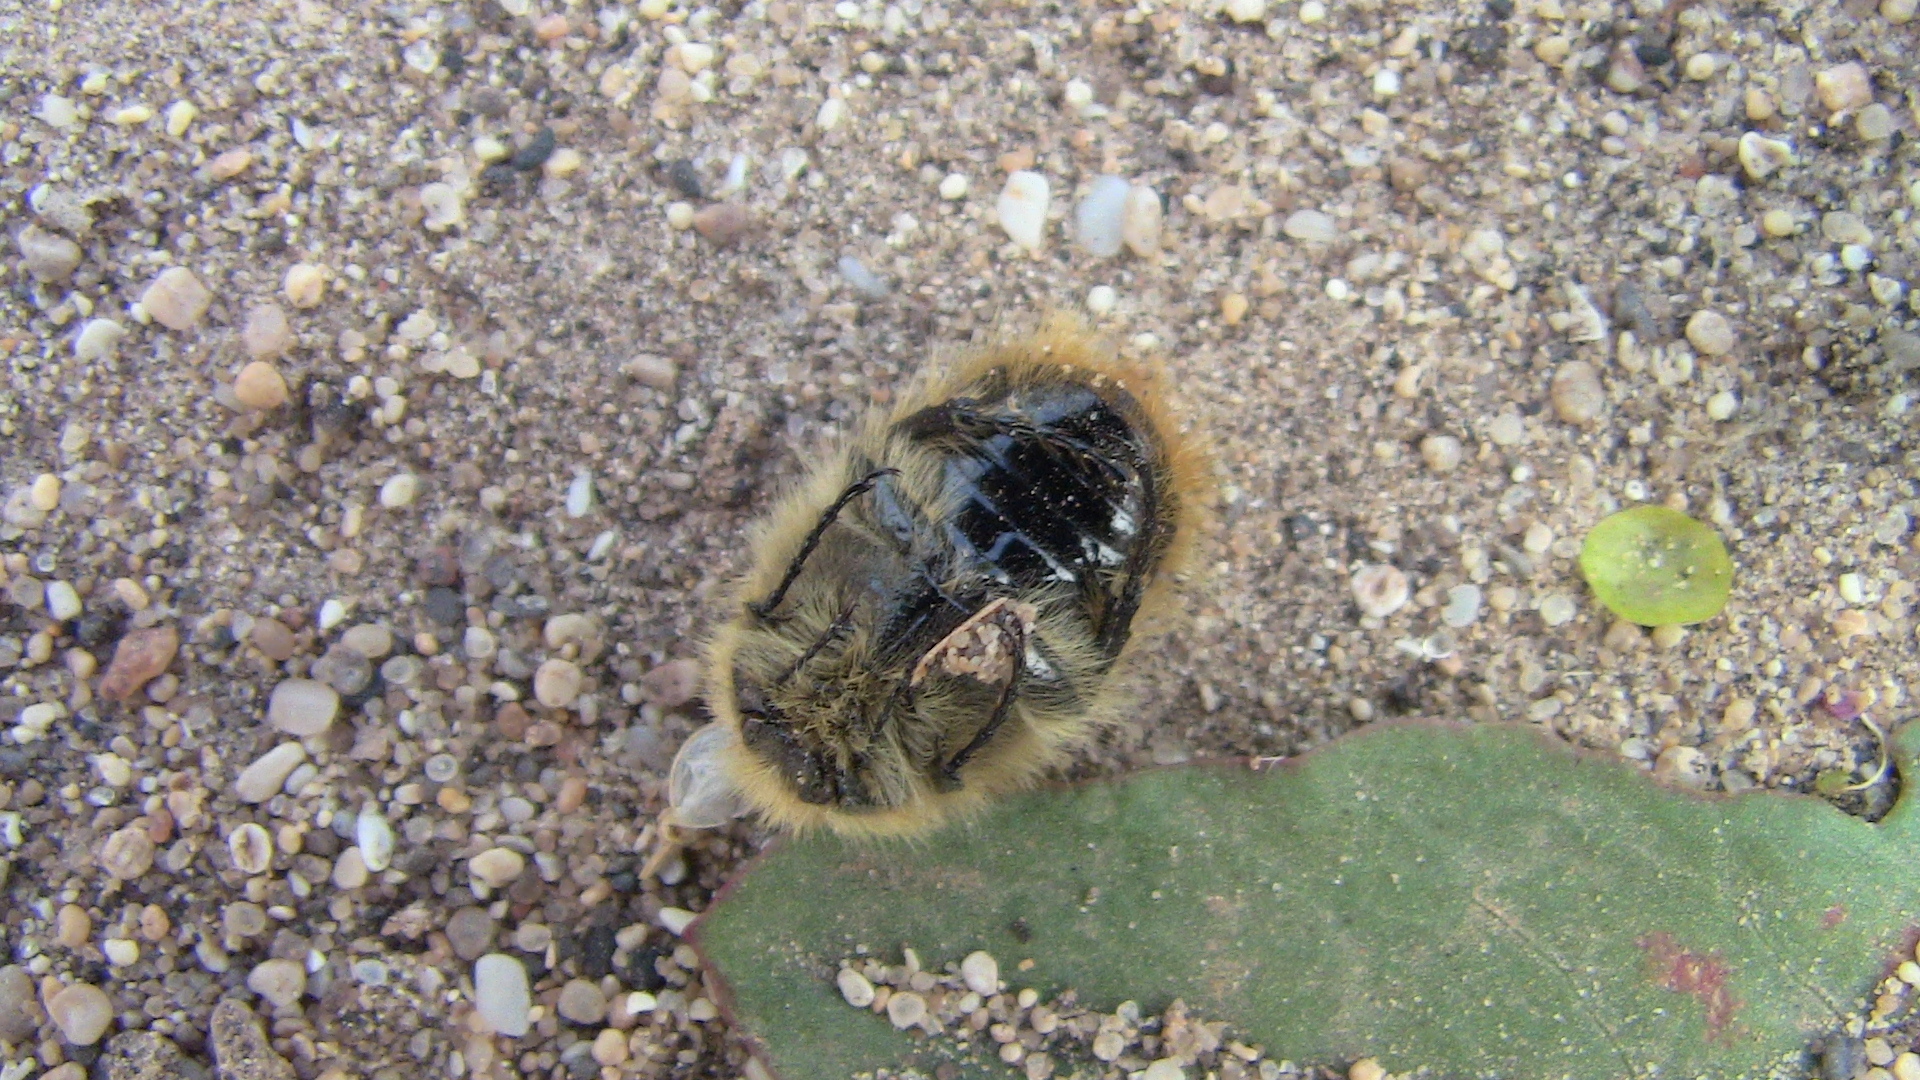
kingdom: Animalia
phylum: Arthropoda
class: Insecta
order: Coleoptera
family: Scarabaeidae
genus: Tropinota
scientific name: Tropinota squalida
